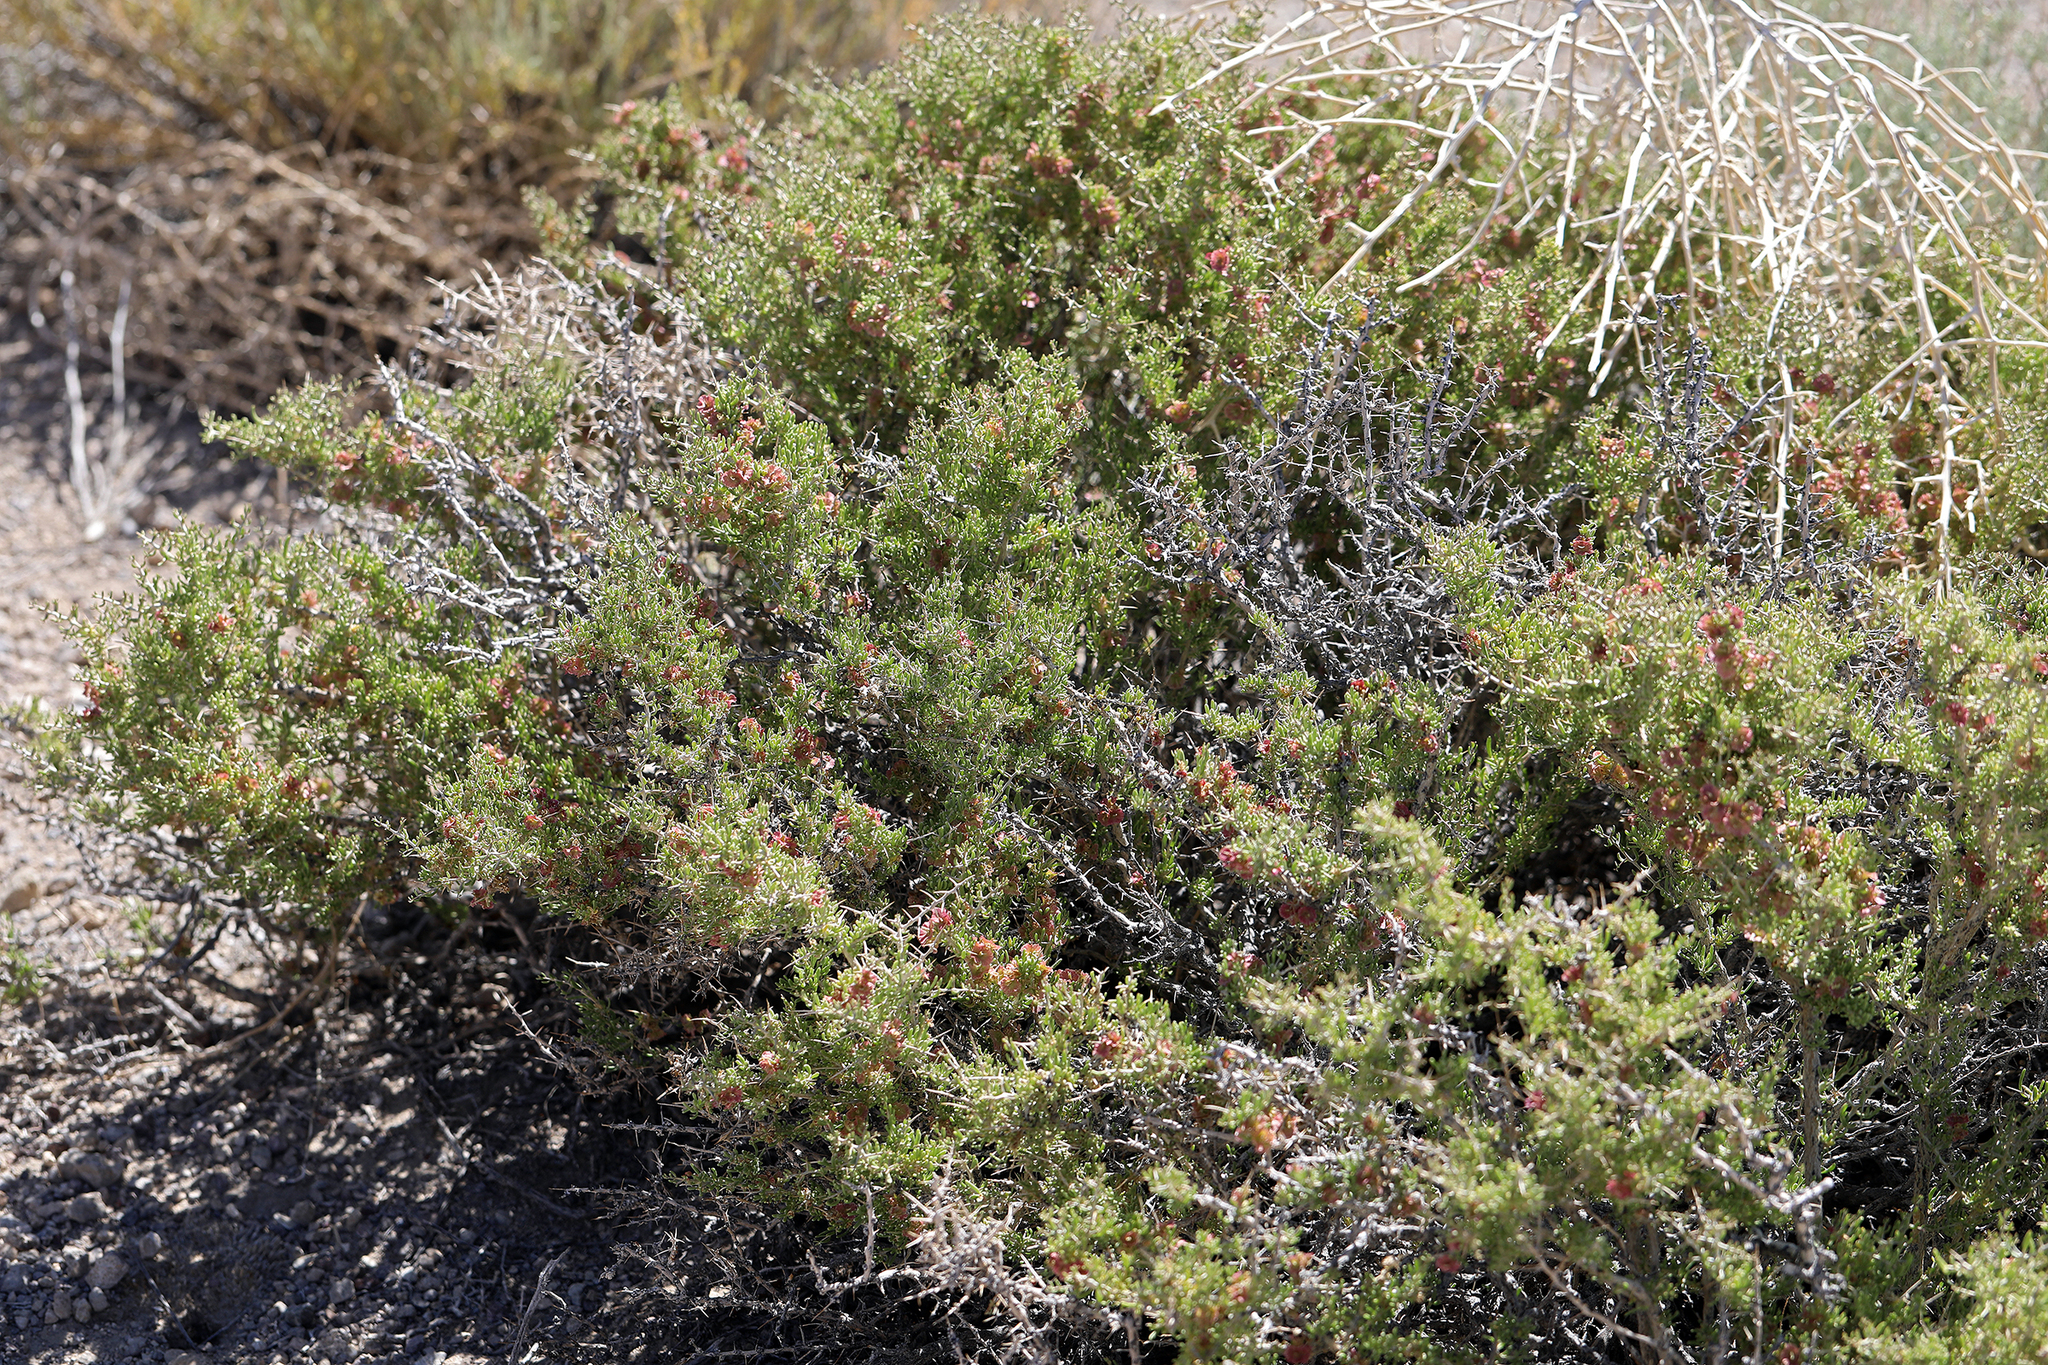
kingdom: Plantae
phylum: Tracheophyta
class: Magnoliopsida
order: Caryophyllales
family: Sarcobataceae
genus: Sarcobatus
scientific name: Sarcobatus baileyi
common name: Bailey greasewood
